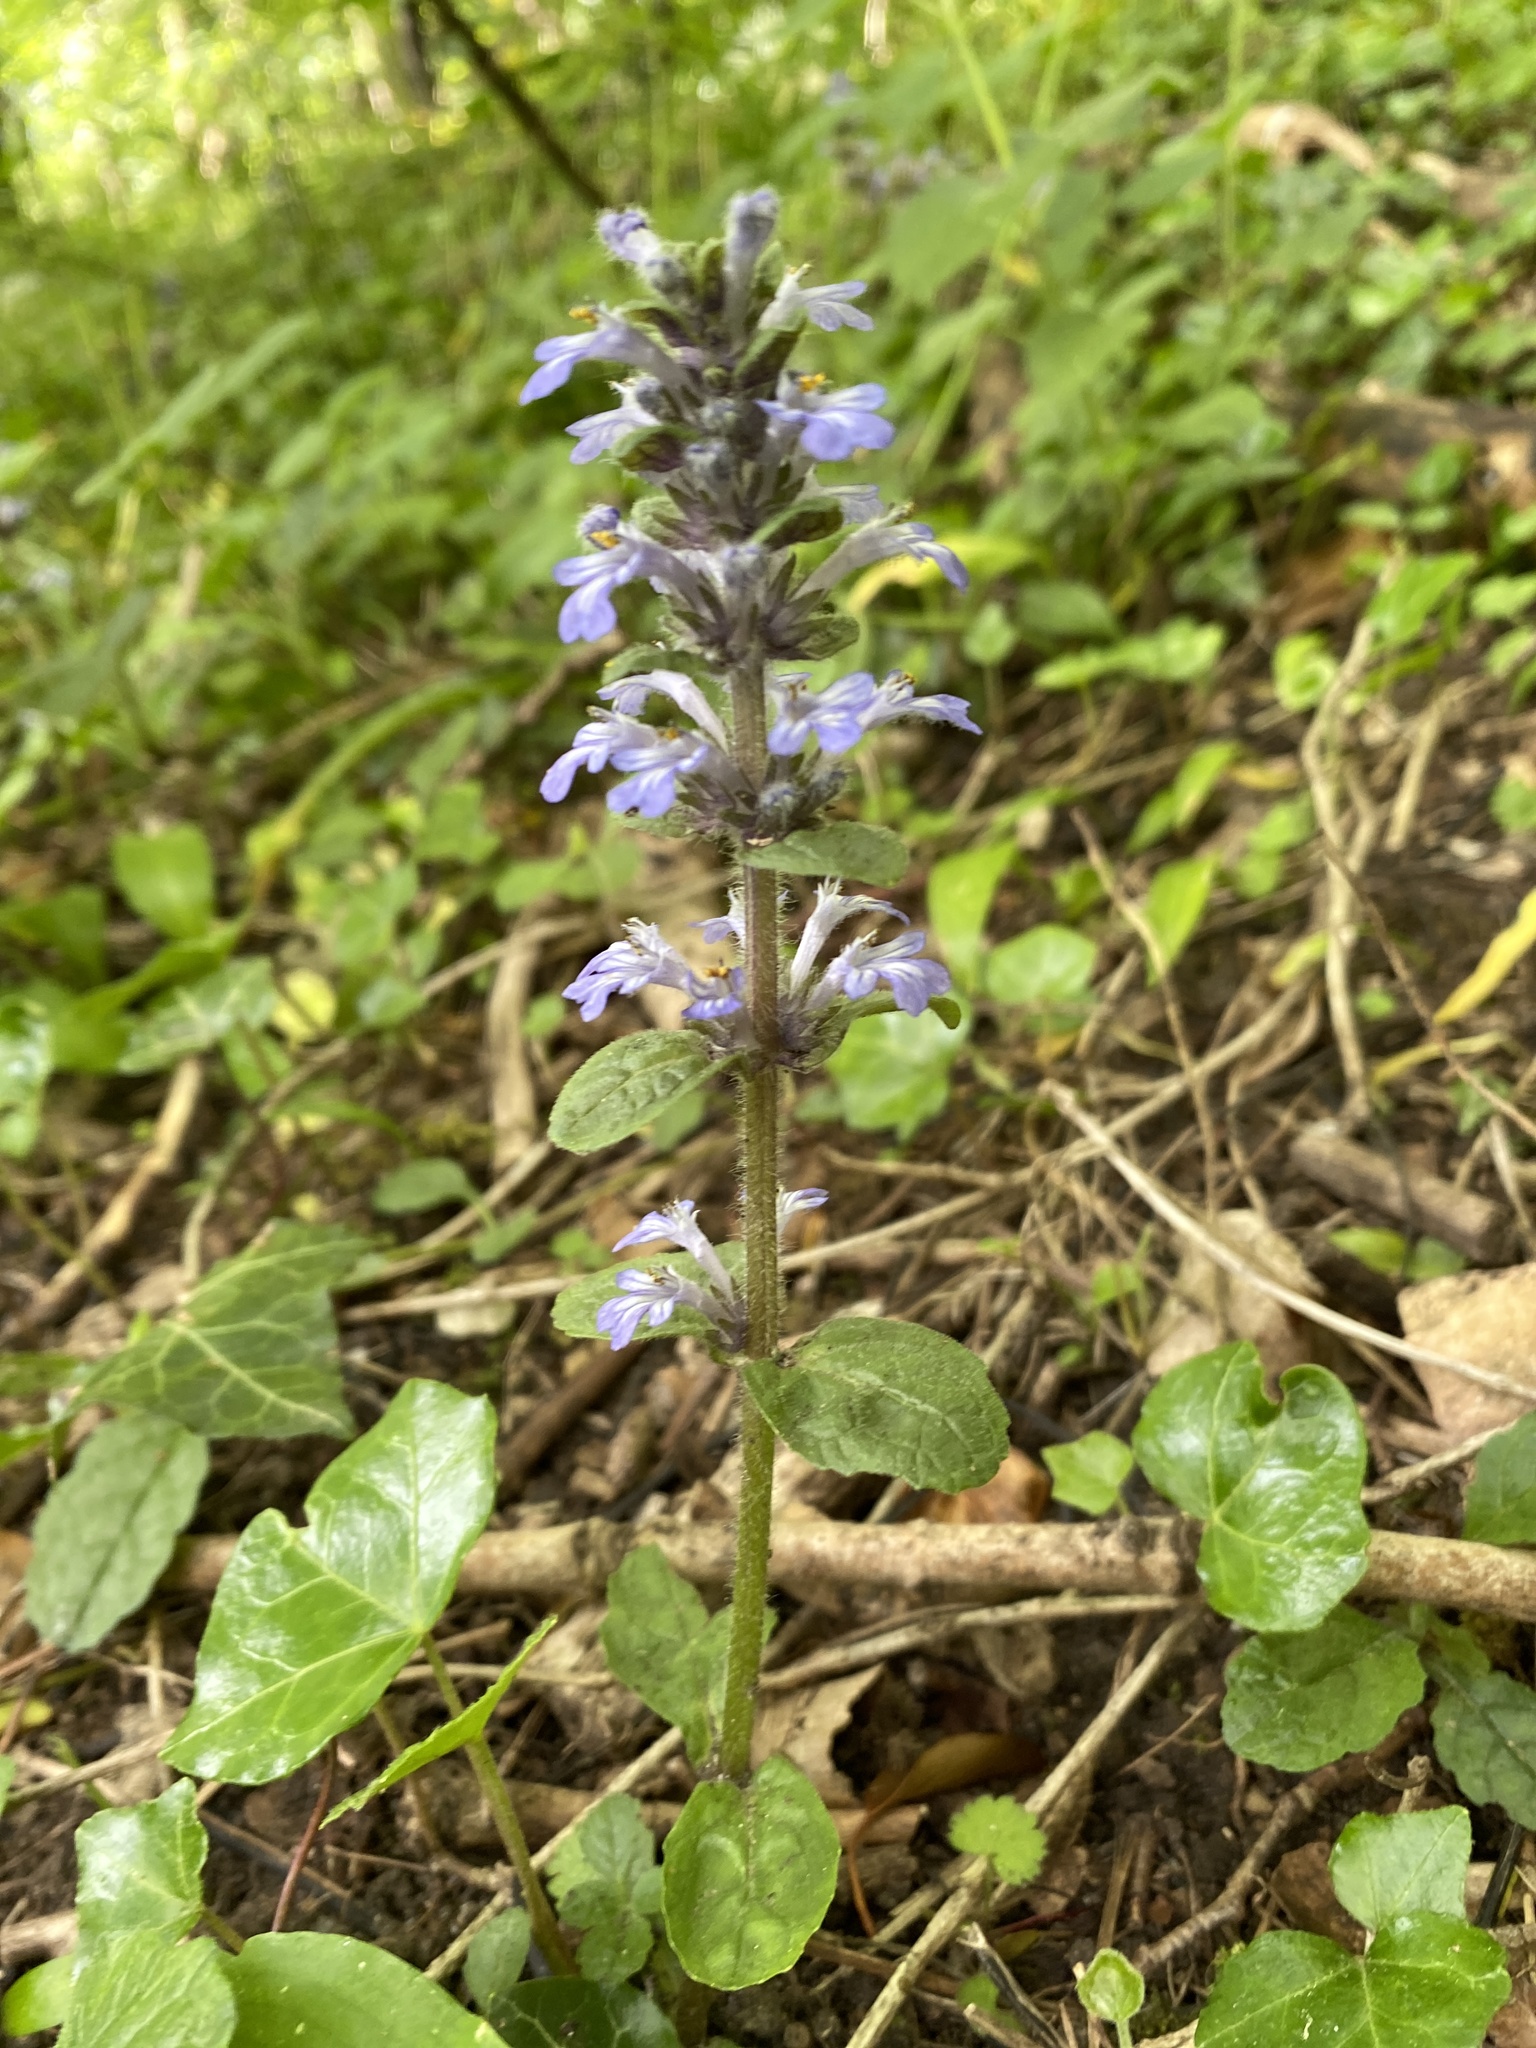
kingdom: Plantae
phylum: Tracheophyta
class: Magnoliopsida
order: Lamiales
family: Lamiaceae
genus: Ajuga
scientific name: Ajuga reptans
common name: Bugle
